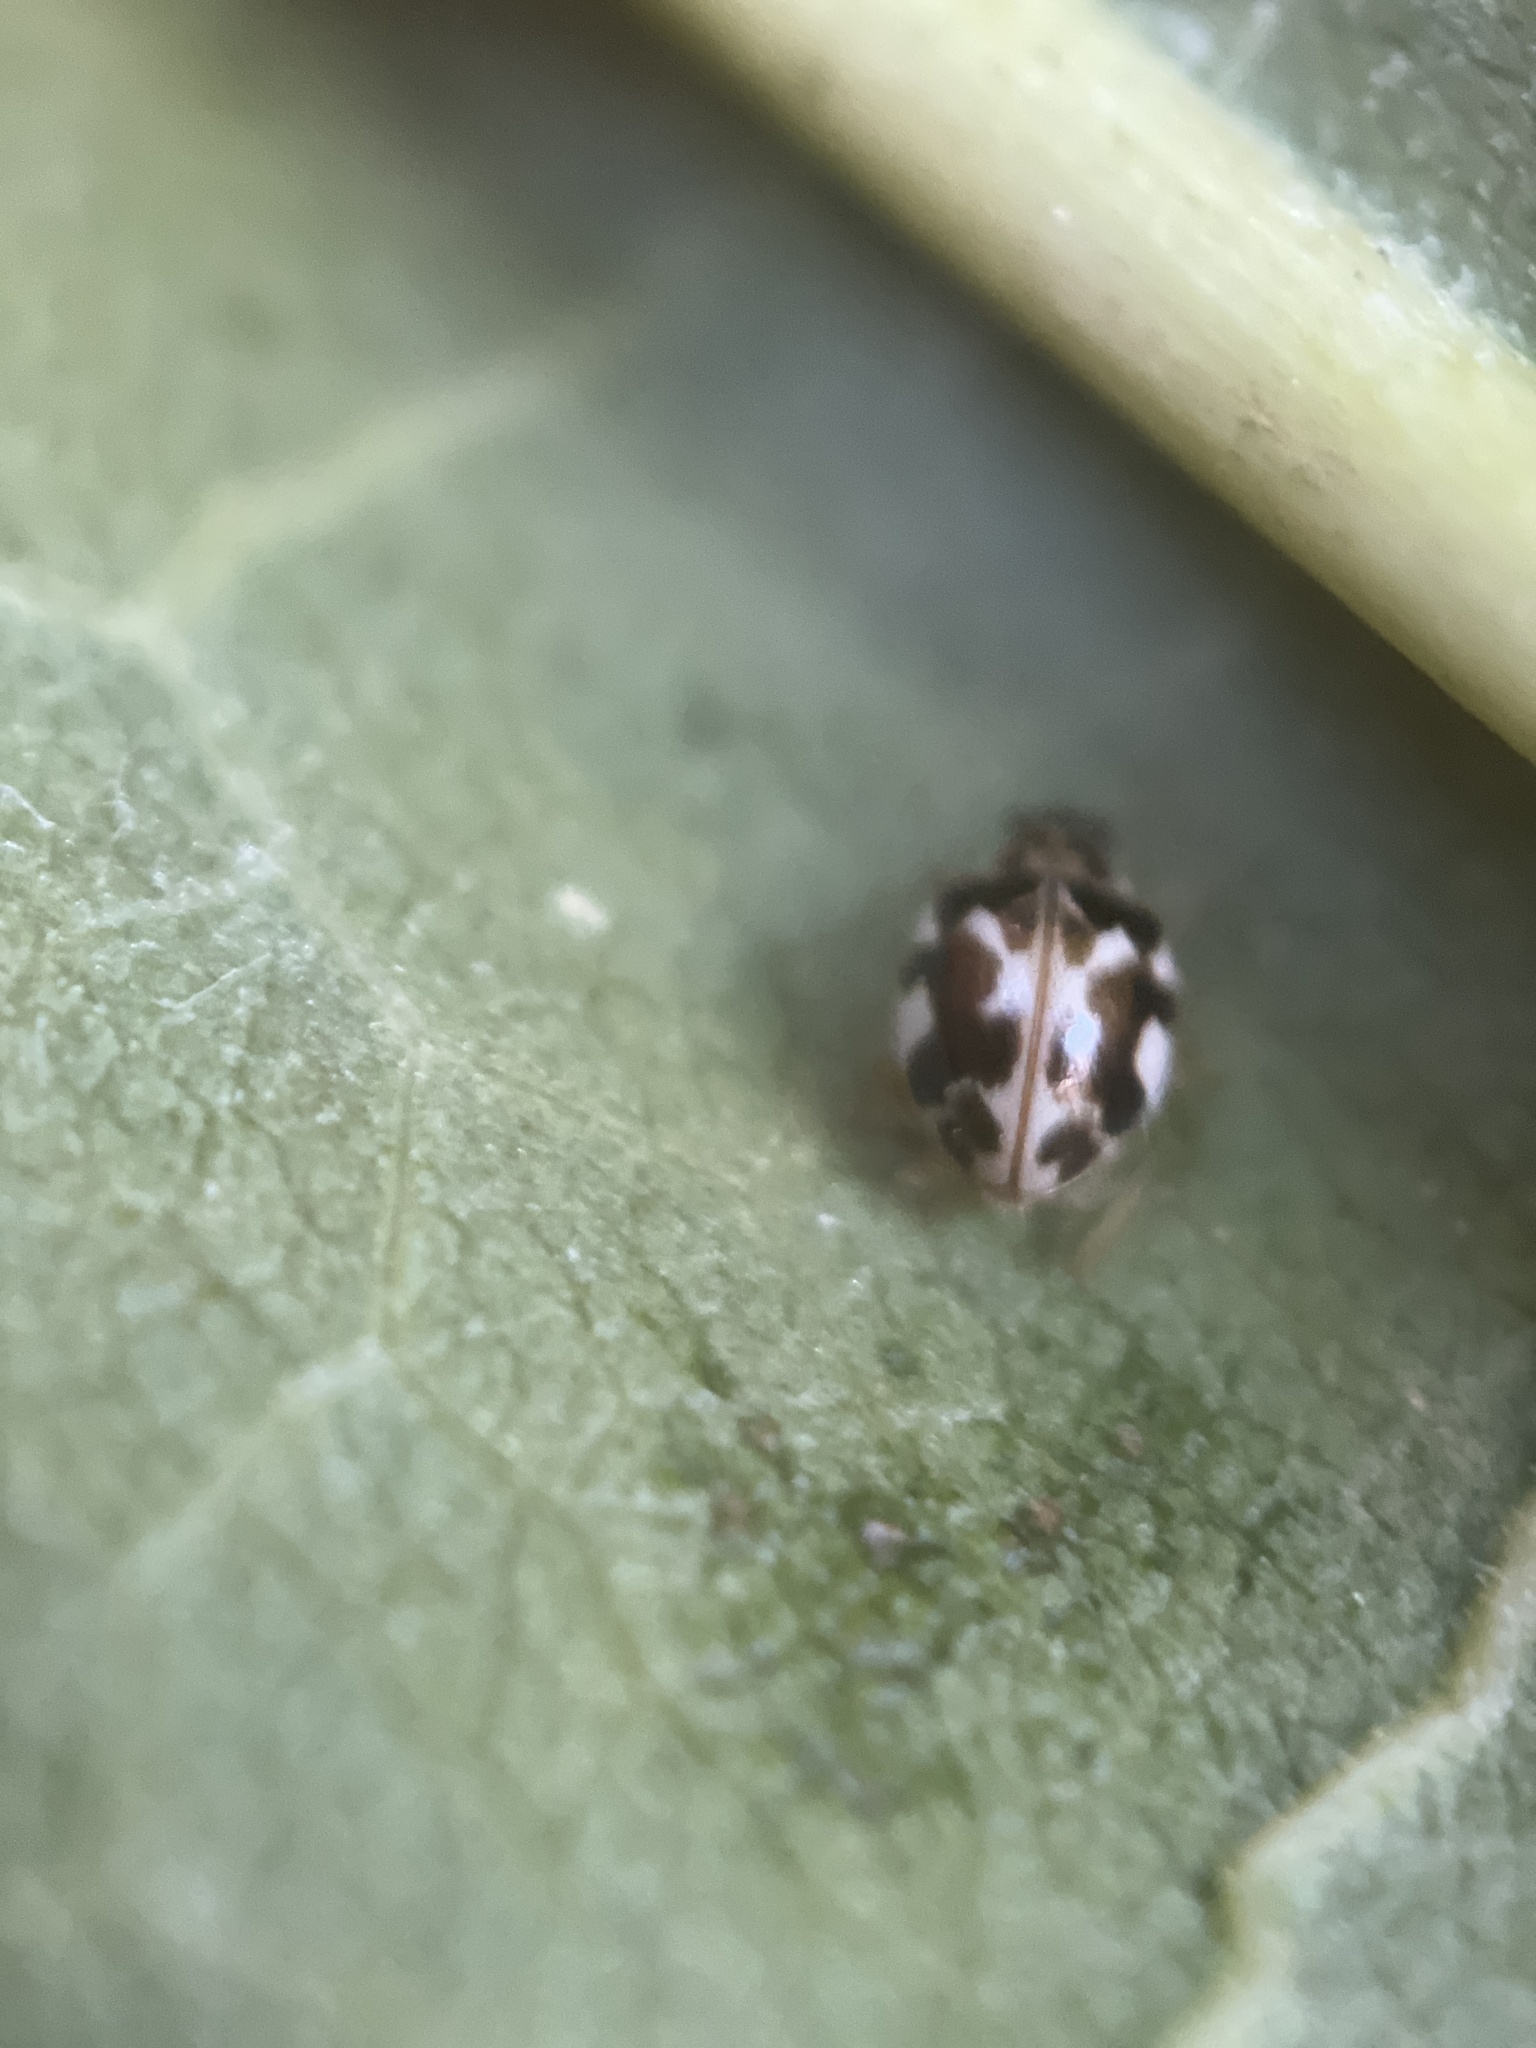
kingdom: Animalia
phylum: Arthropoda
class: Insecta
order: Coleoptera
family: Coccinellidae
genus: Psyllobora
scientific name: Psyllobora vigintimaculata
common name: Ladybird beetle
